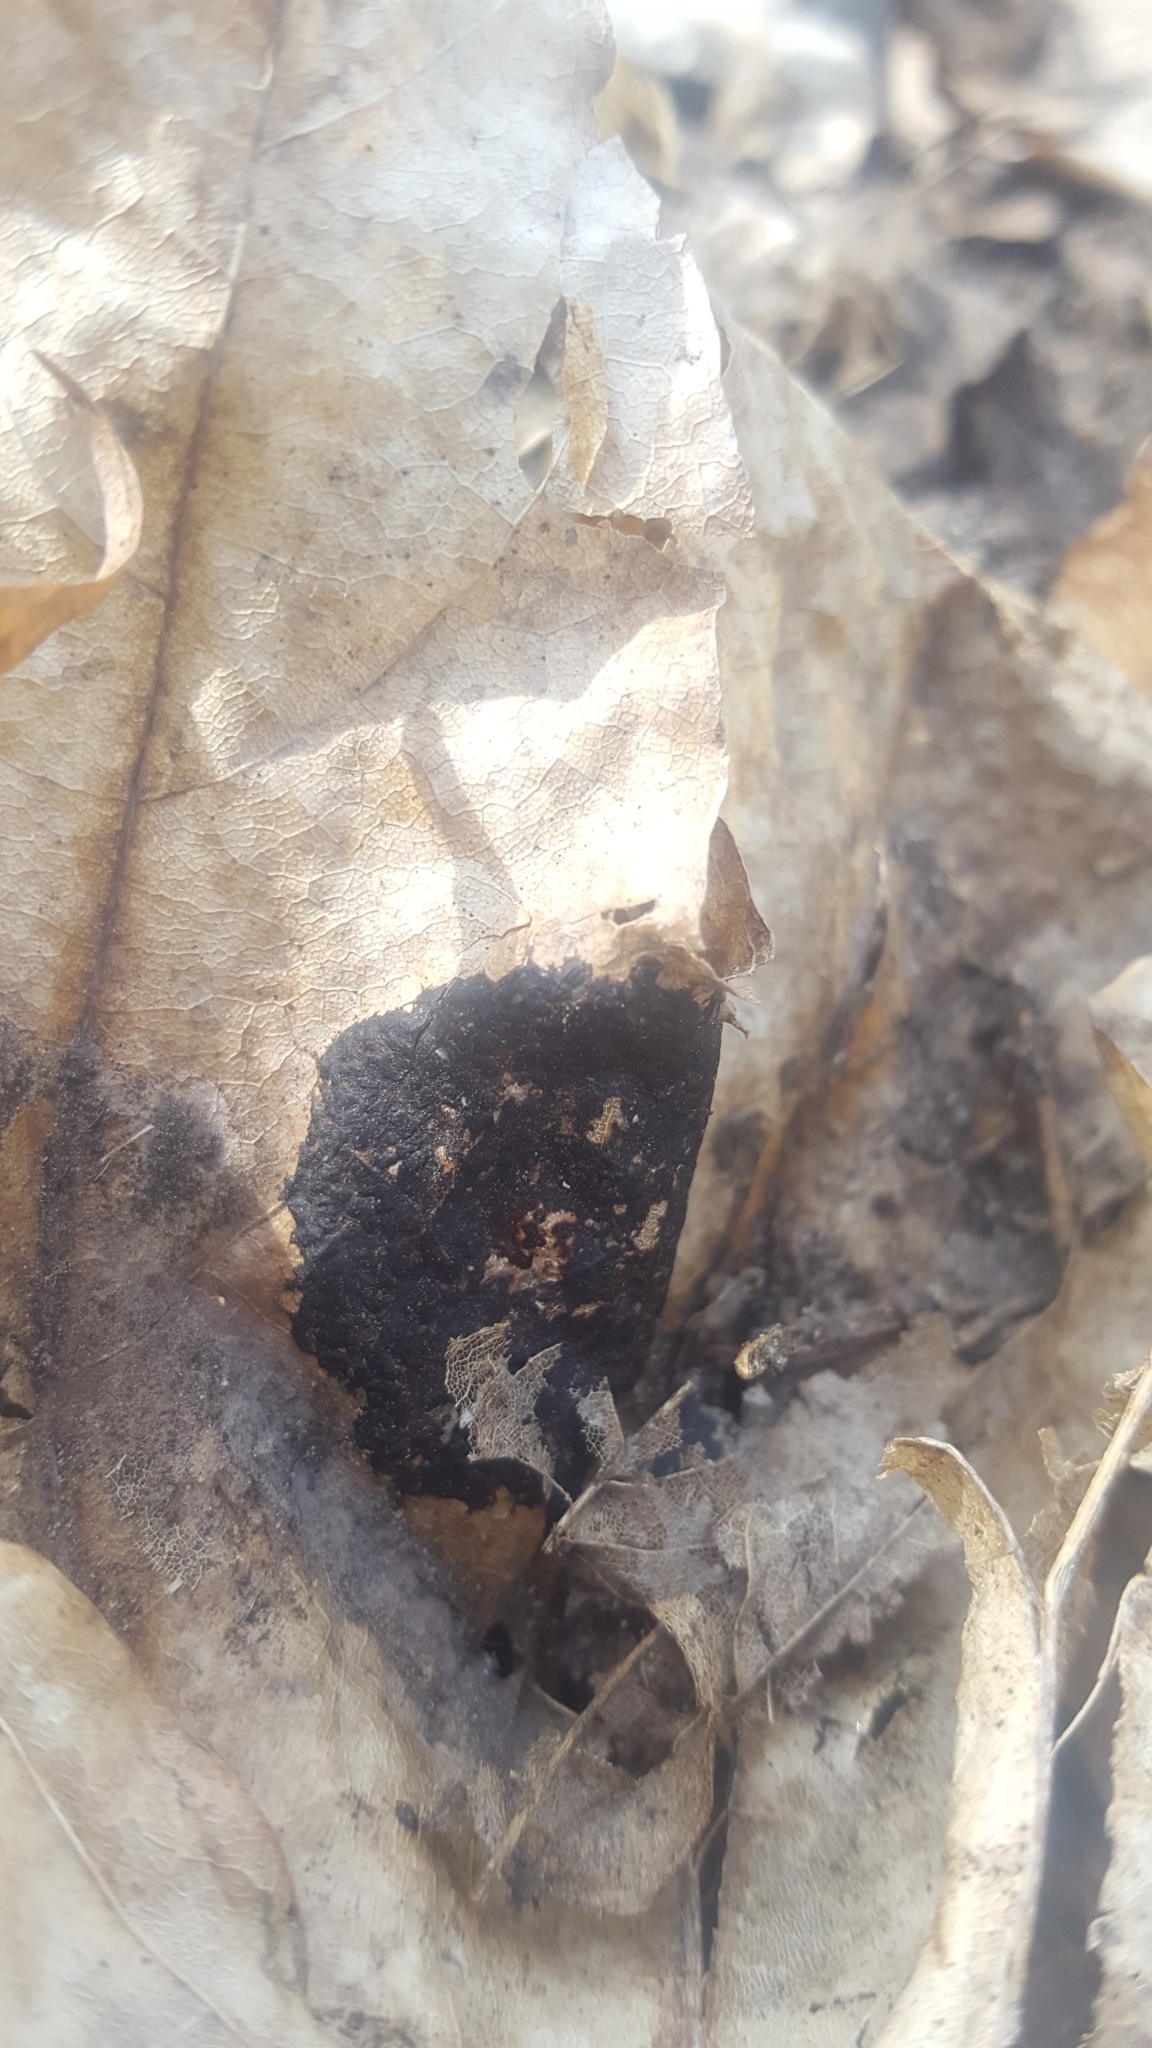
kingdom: Fungi
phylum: Ascomycota
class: Leotiomycetes
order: Rhytismatales
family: Rhytismataceae
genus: Rhytisma
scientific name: Rhytisma acerinum
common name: European tar spot
